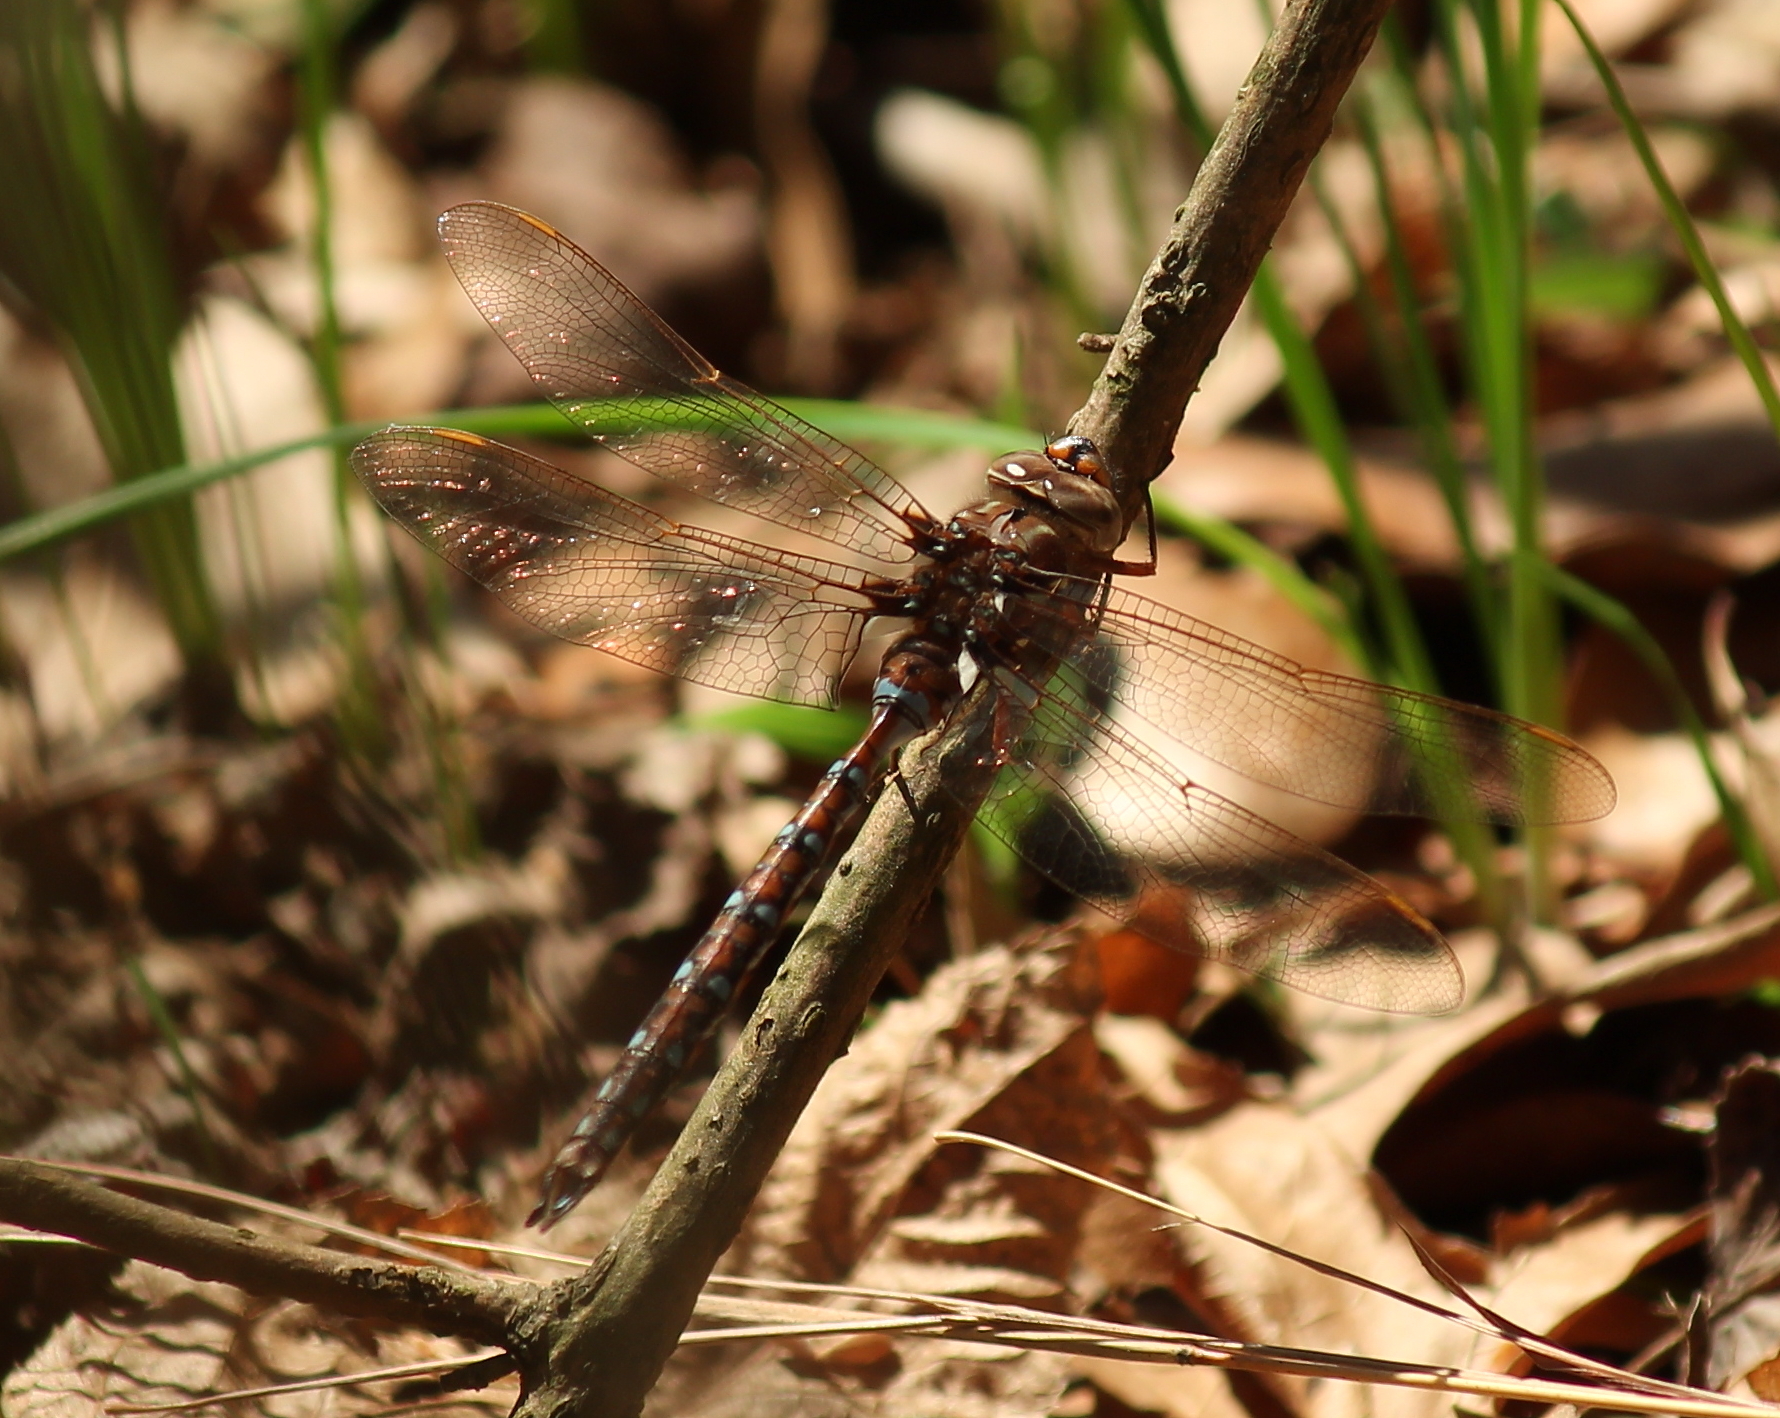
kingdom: Animalia
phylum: Arthropoda
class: Insecta
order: Odonata
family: Aeshnidae
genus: Basiaeschna
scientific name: Basiaeschna janata
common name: Springtime darner
